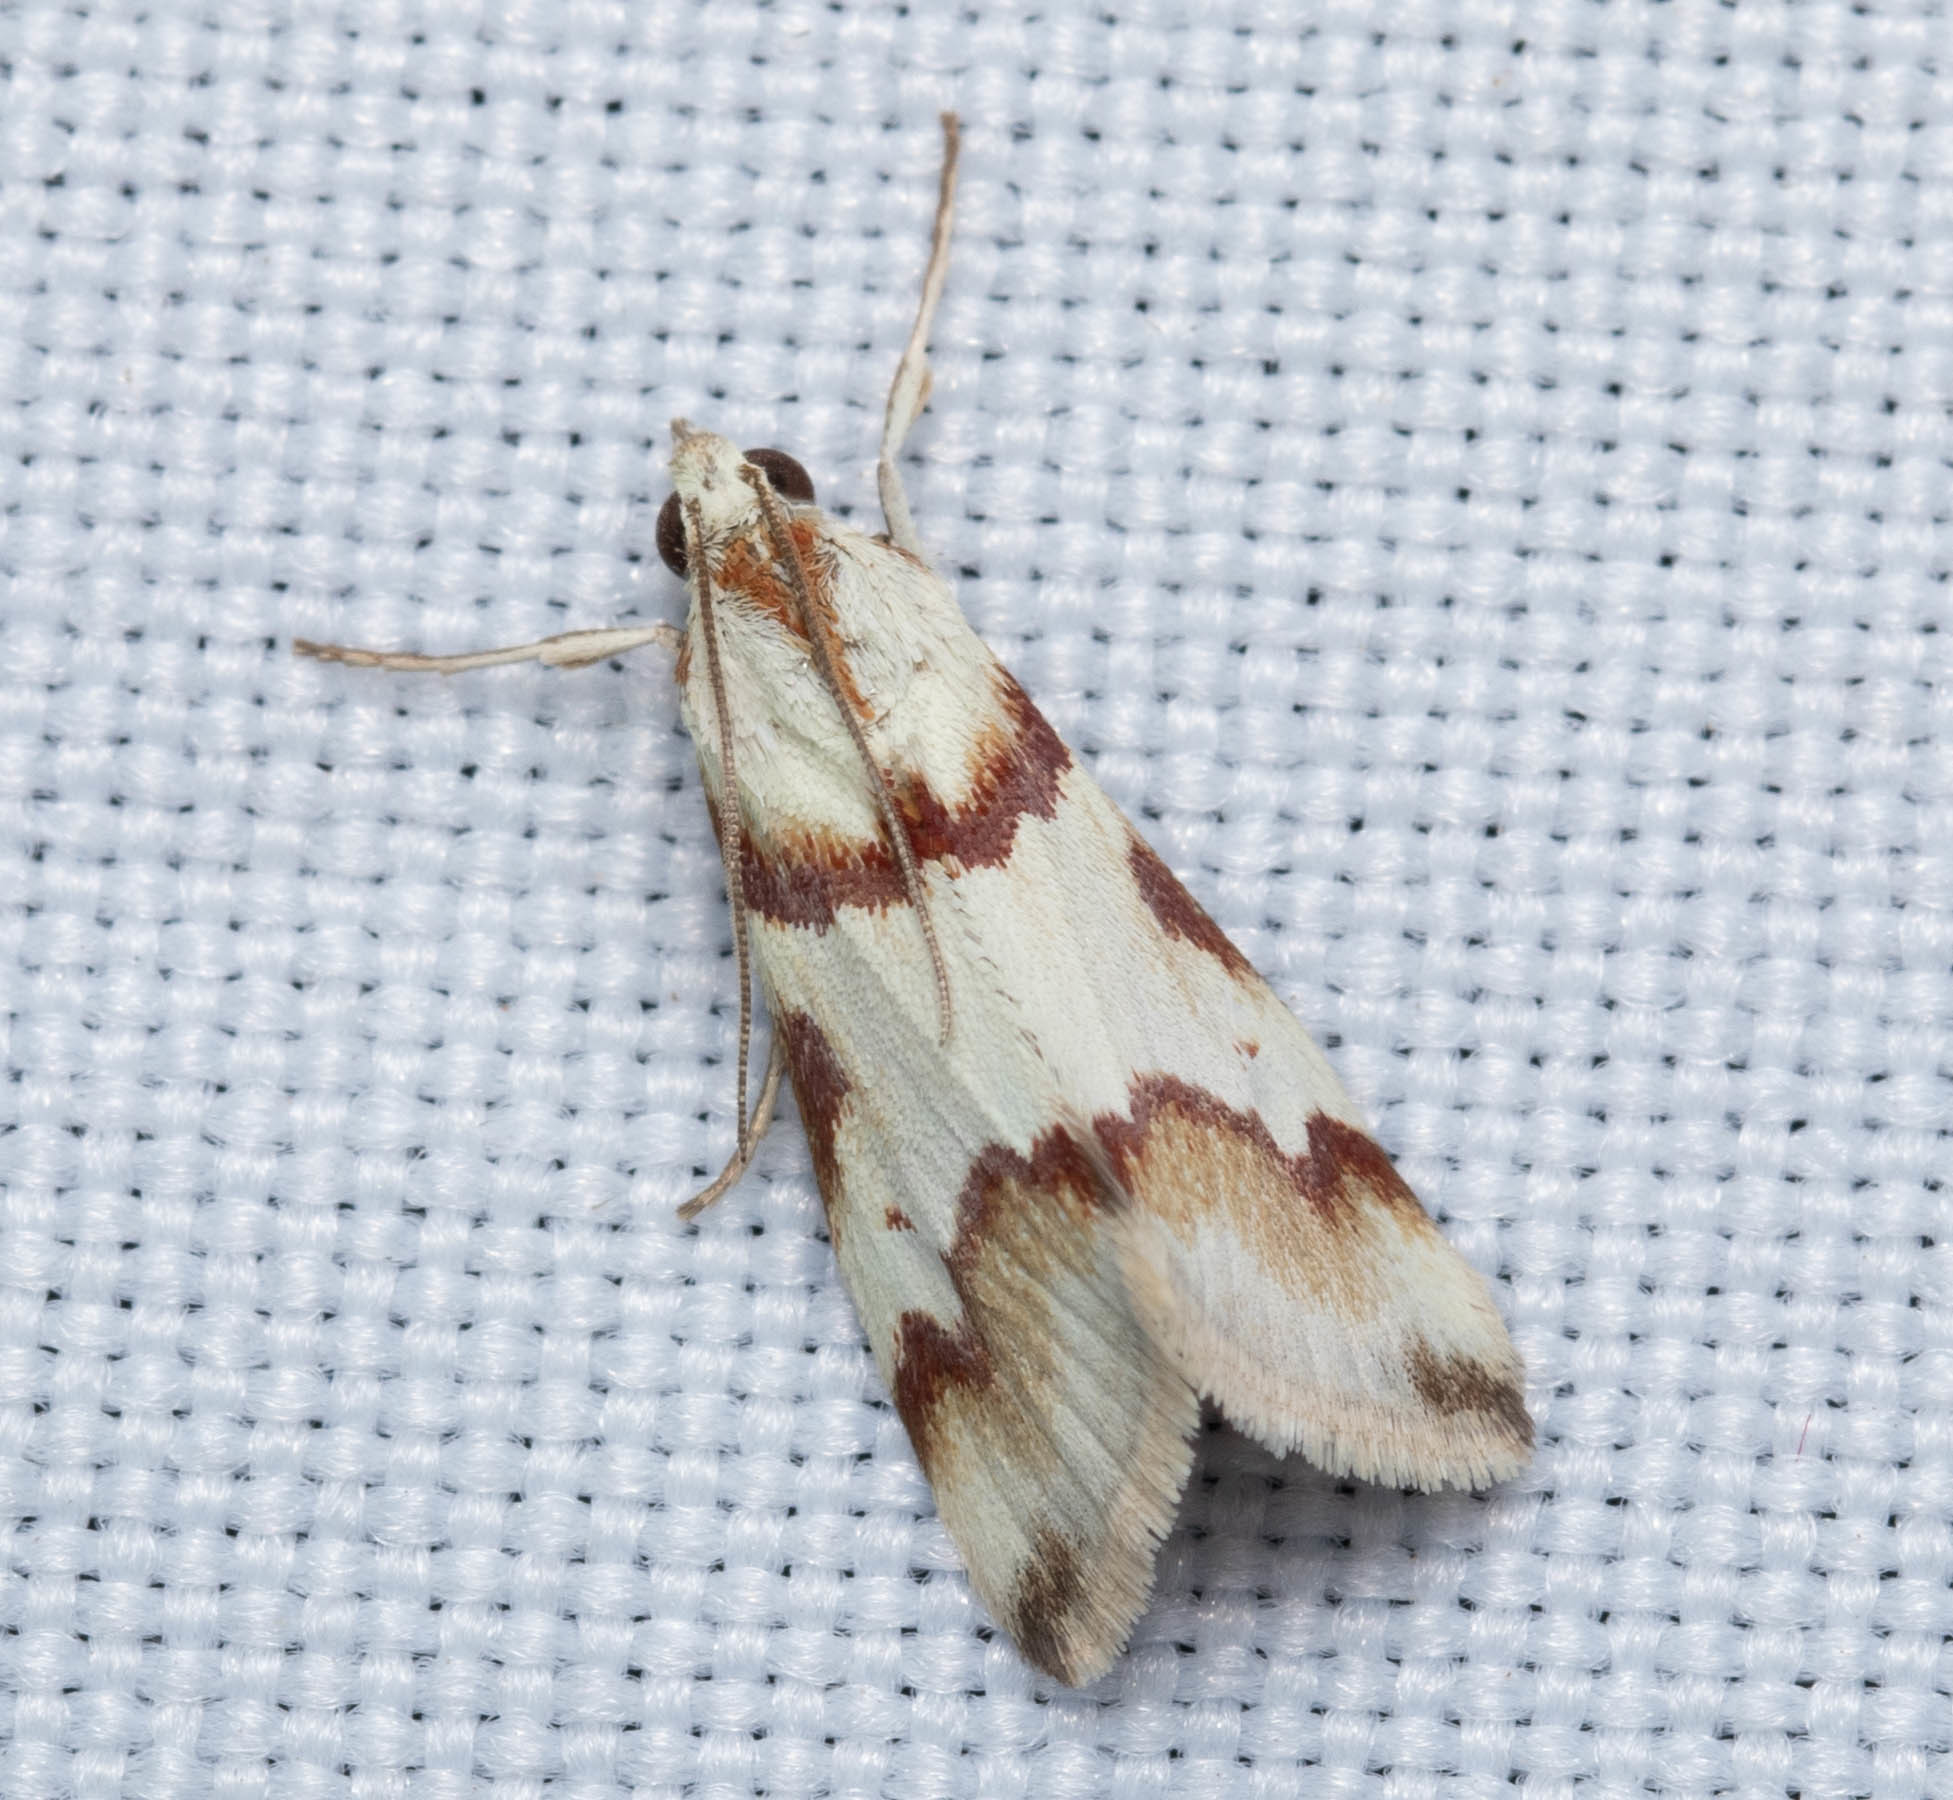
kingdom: Animalia
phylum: Arthropoda
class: Insecta
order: Lepidoptera
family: Crambidae
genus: Noctuelia
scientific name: Noctuelia Mimoschinia rufofascialis
